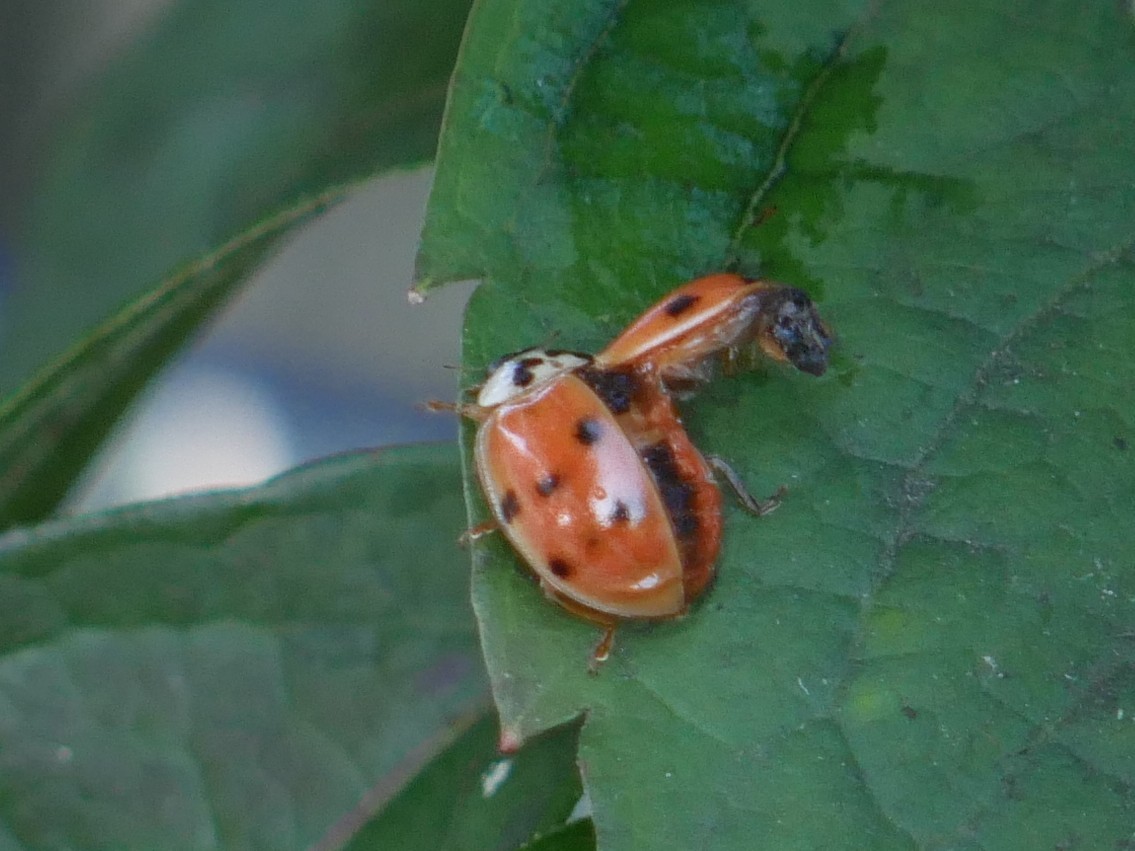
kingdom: Animalia
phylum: Arthropoda
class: Insecta
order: Coleoptera
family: Coccinellidae
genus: Harmonia
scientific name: Harmonia axyridis
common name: Harlequin ladybird
